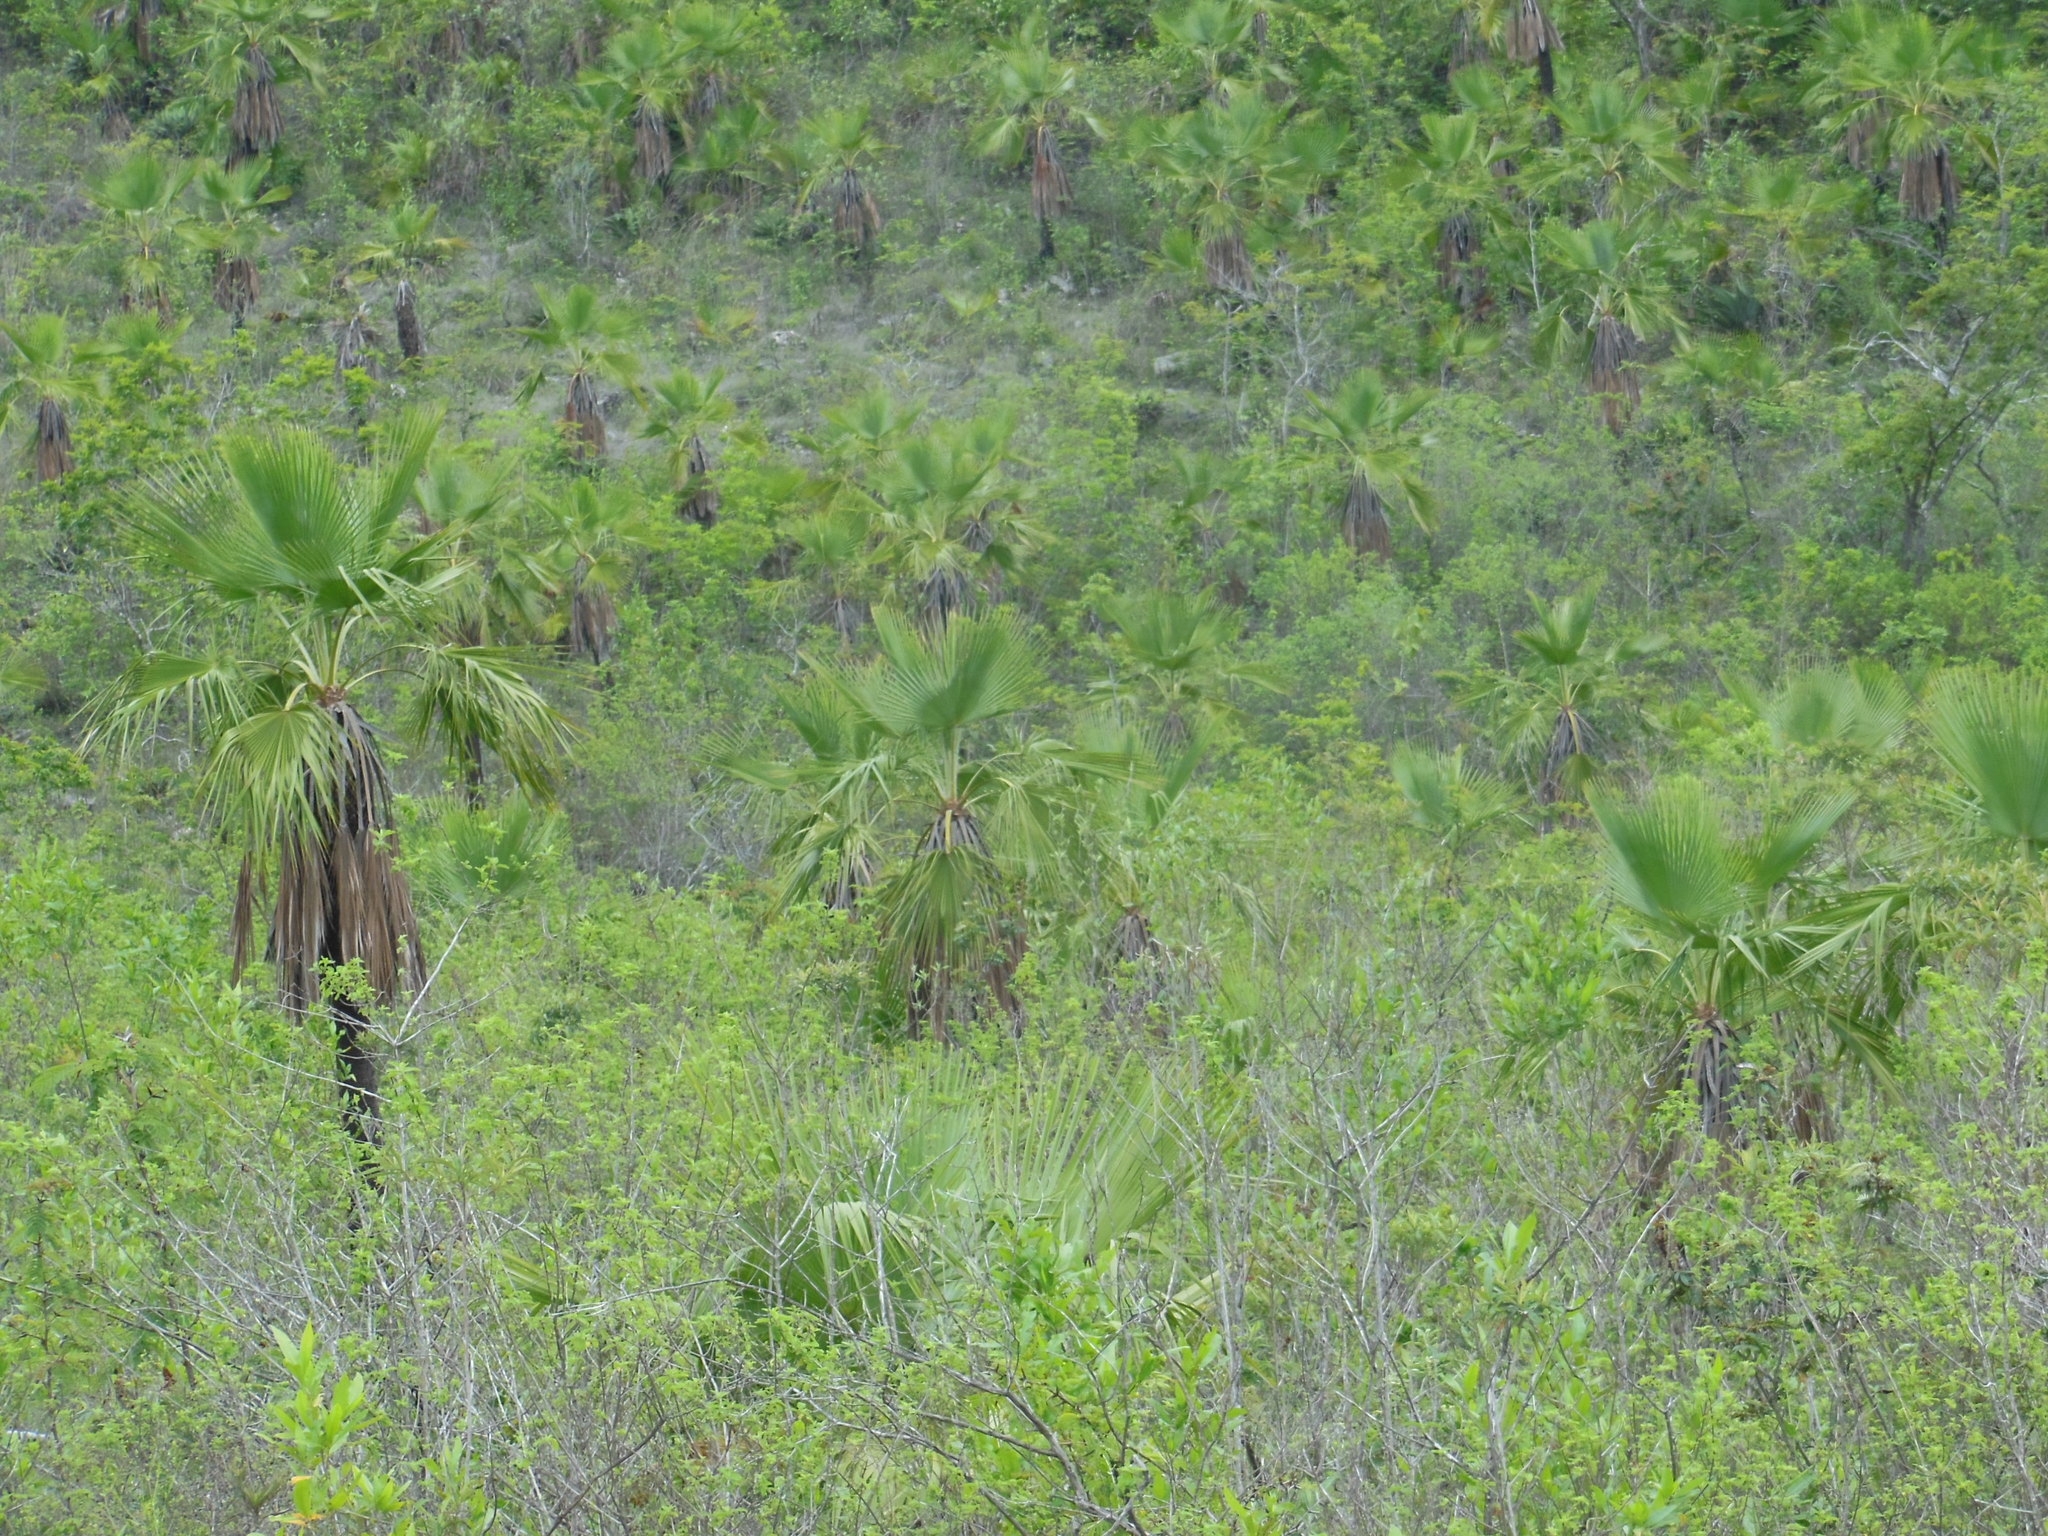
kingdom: Plantae
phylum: Tracheophyta
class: Liliopsida
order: Arecales
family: Arecaceae
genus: Brahea
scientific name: Brahea nitida
